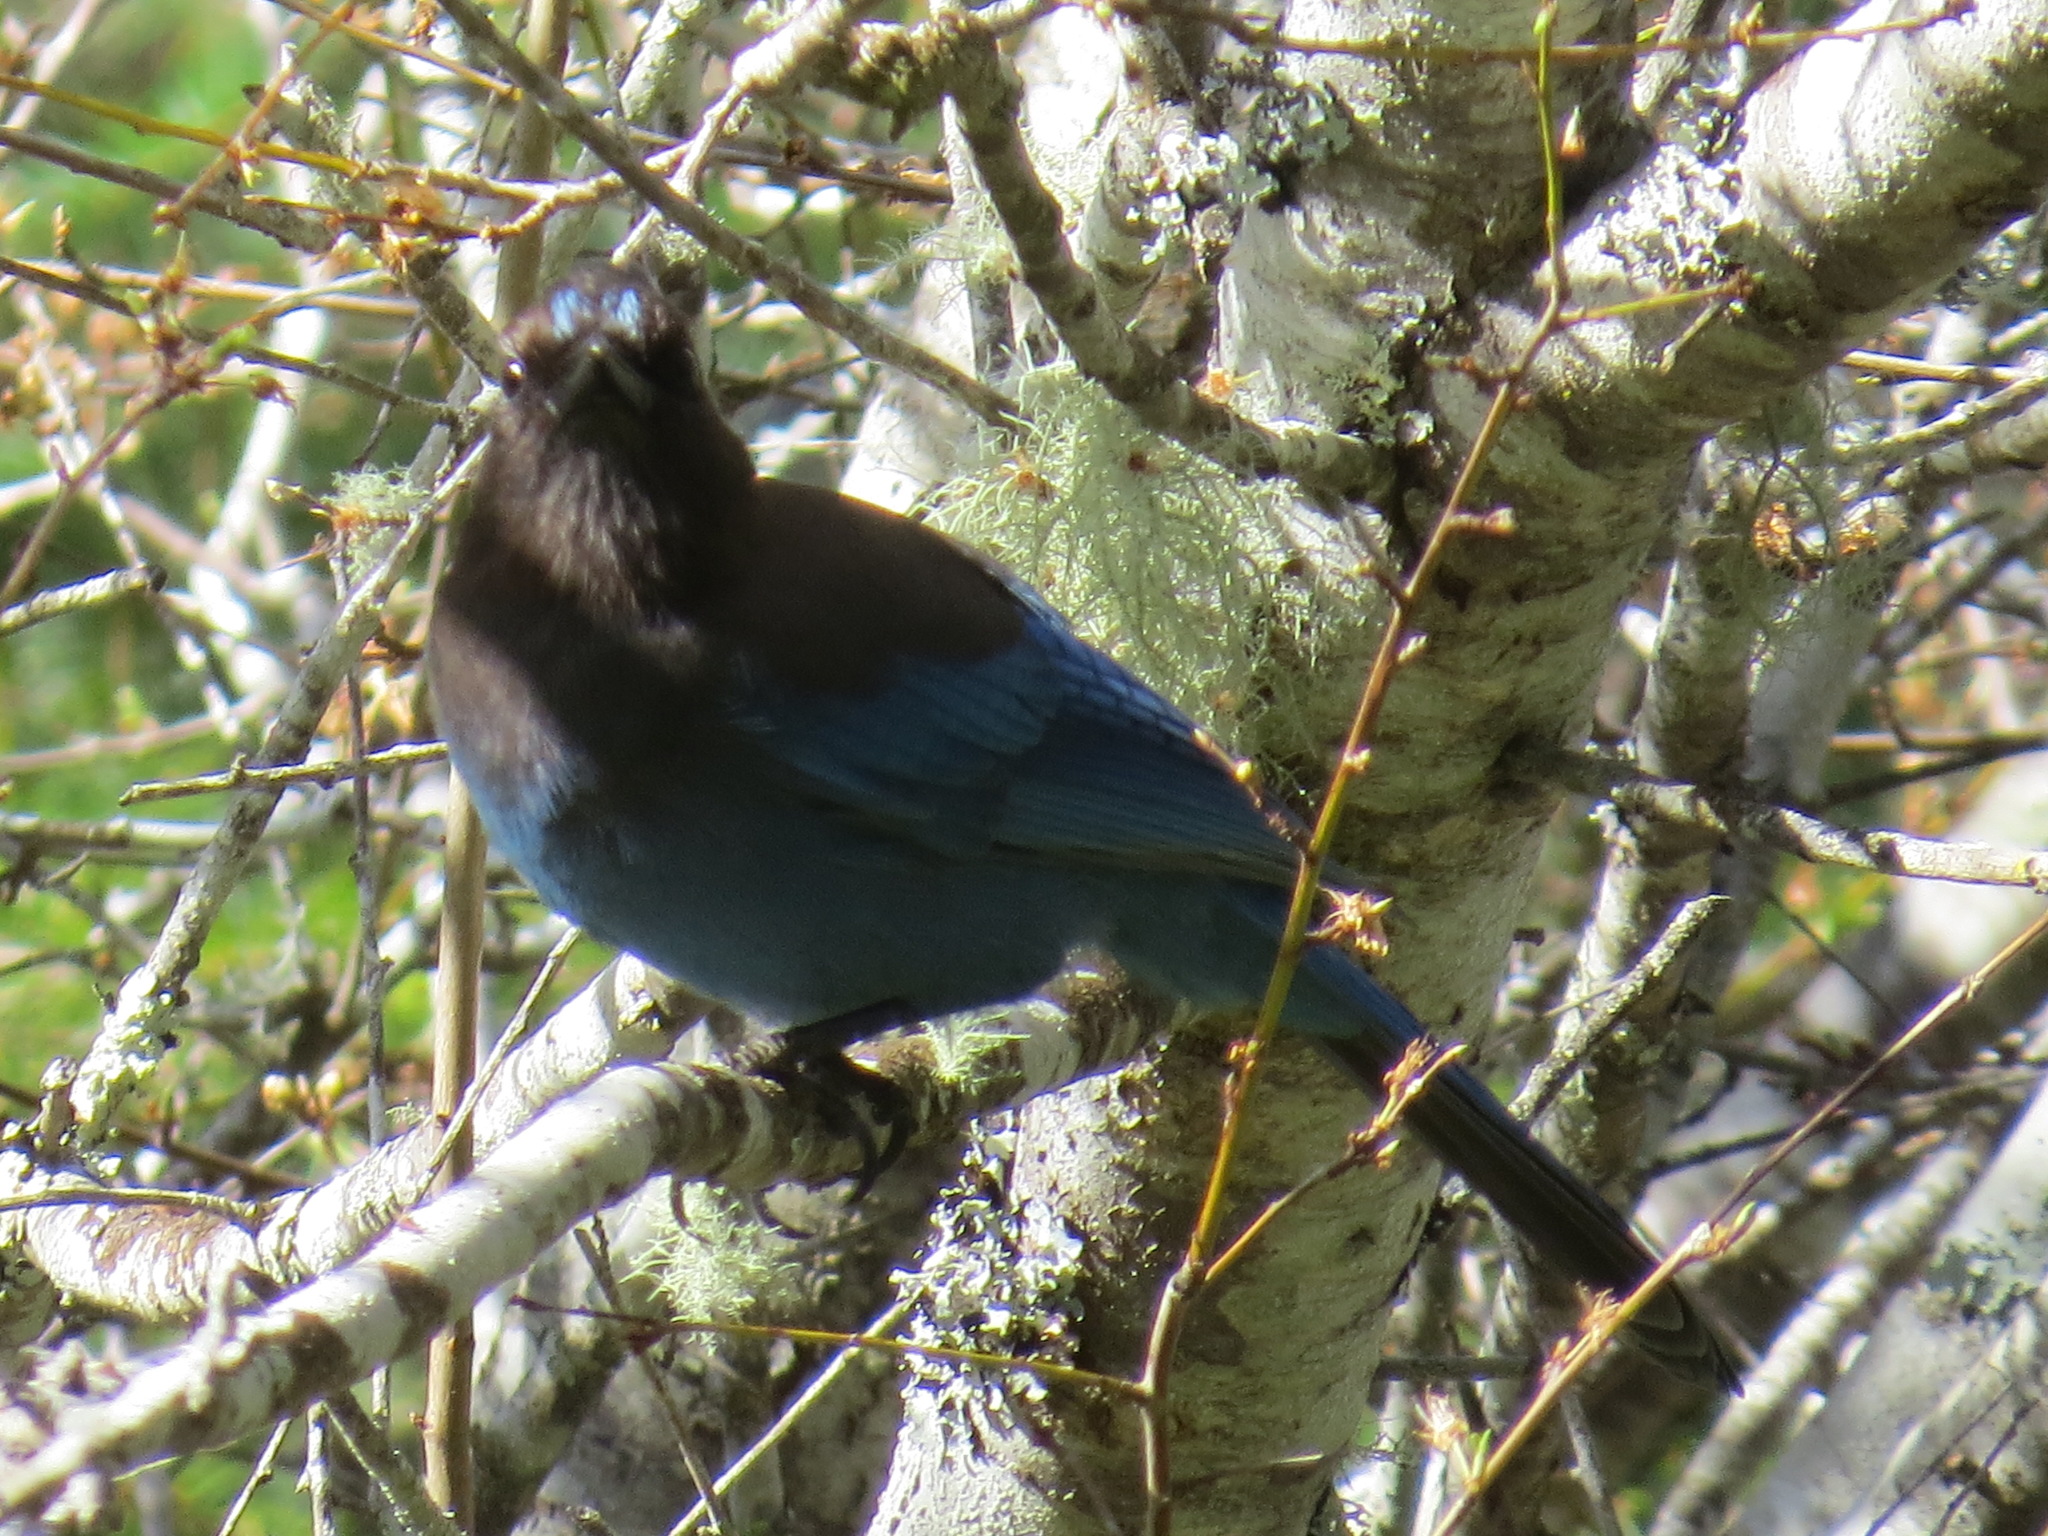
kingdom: Animalia
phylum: Chordata
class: Aves
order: Passeriformes
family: Corvidae
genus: Cyanocitta
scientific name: Cyanocitta stelleri
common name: Steller's jay
